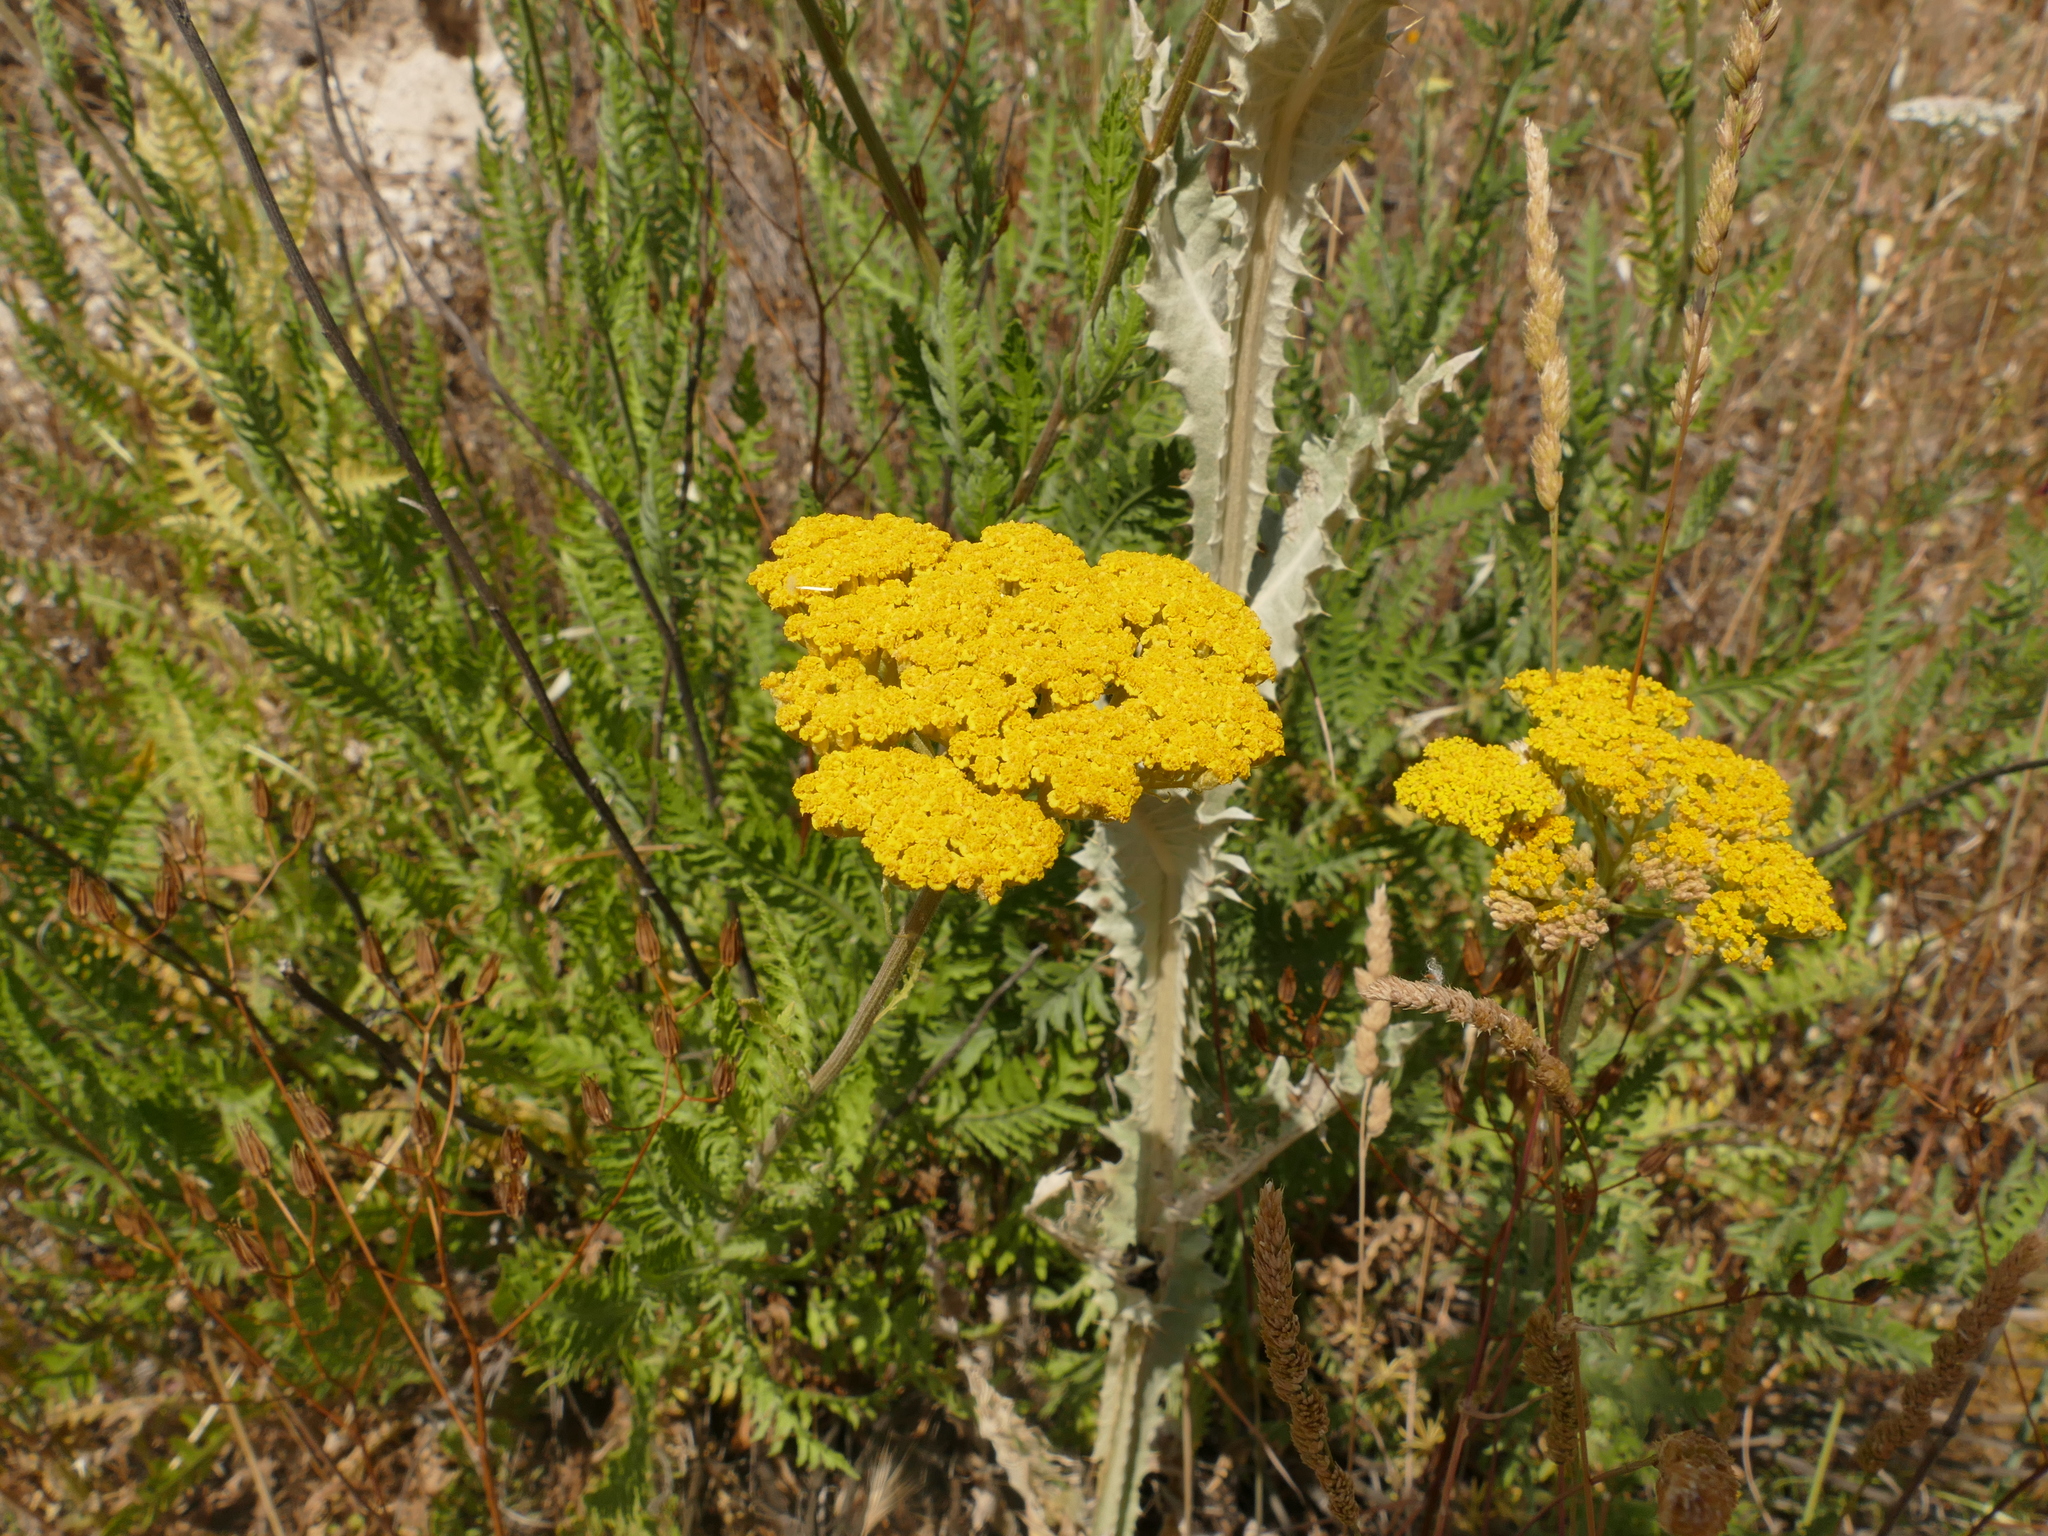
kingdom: Plantae
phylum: Tracheophyta
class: Magnoliopsida
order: Asterales
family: Asteraceae
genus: Achillea
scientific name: Achillea filipendulina
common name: Fernleaf yarrow
